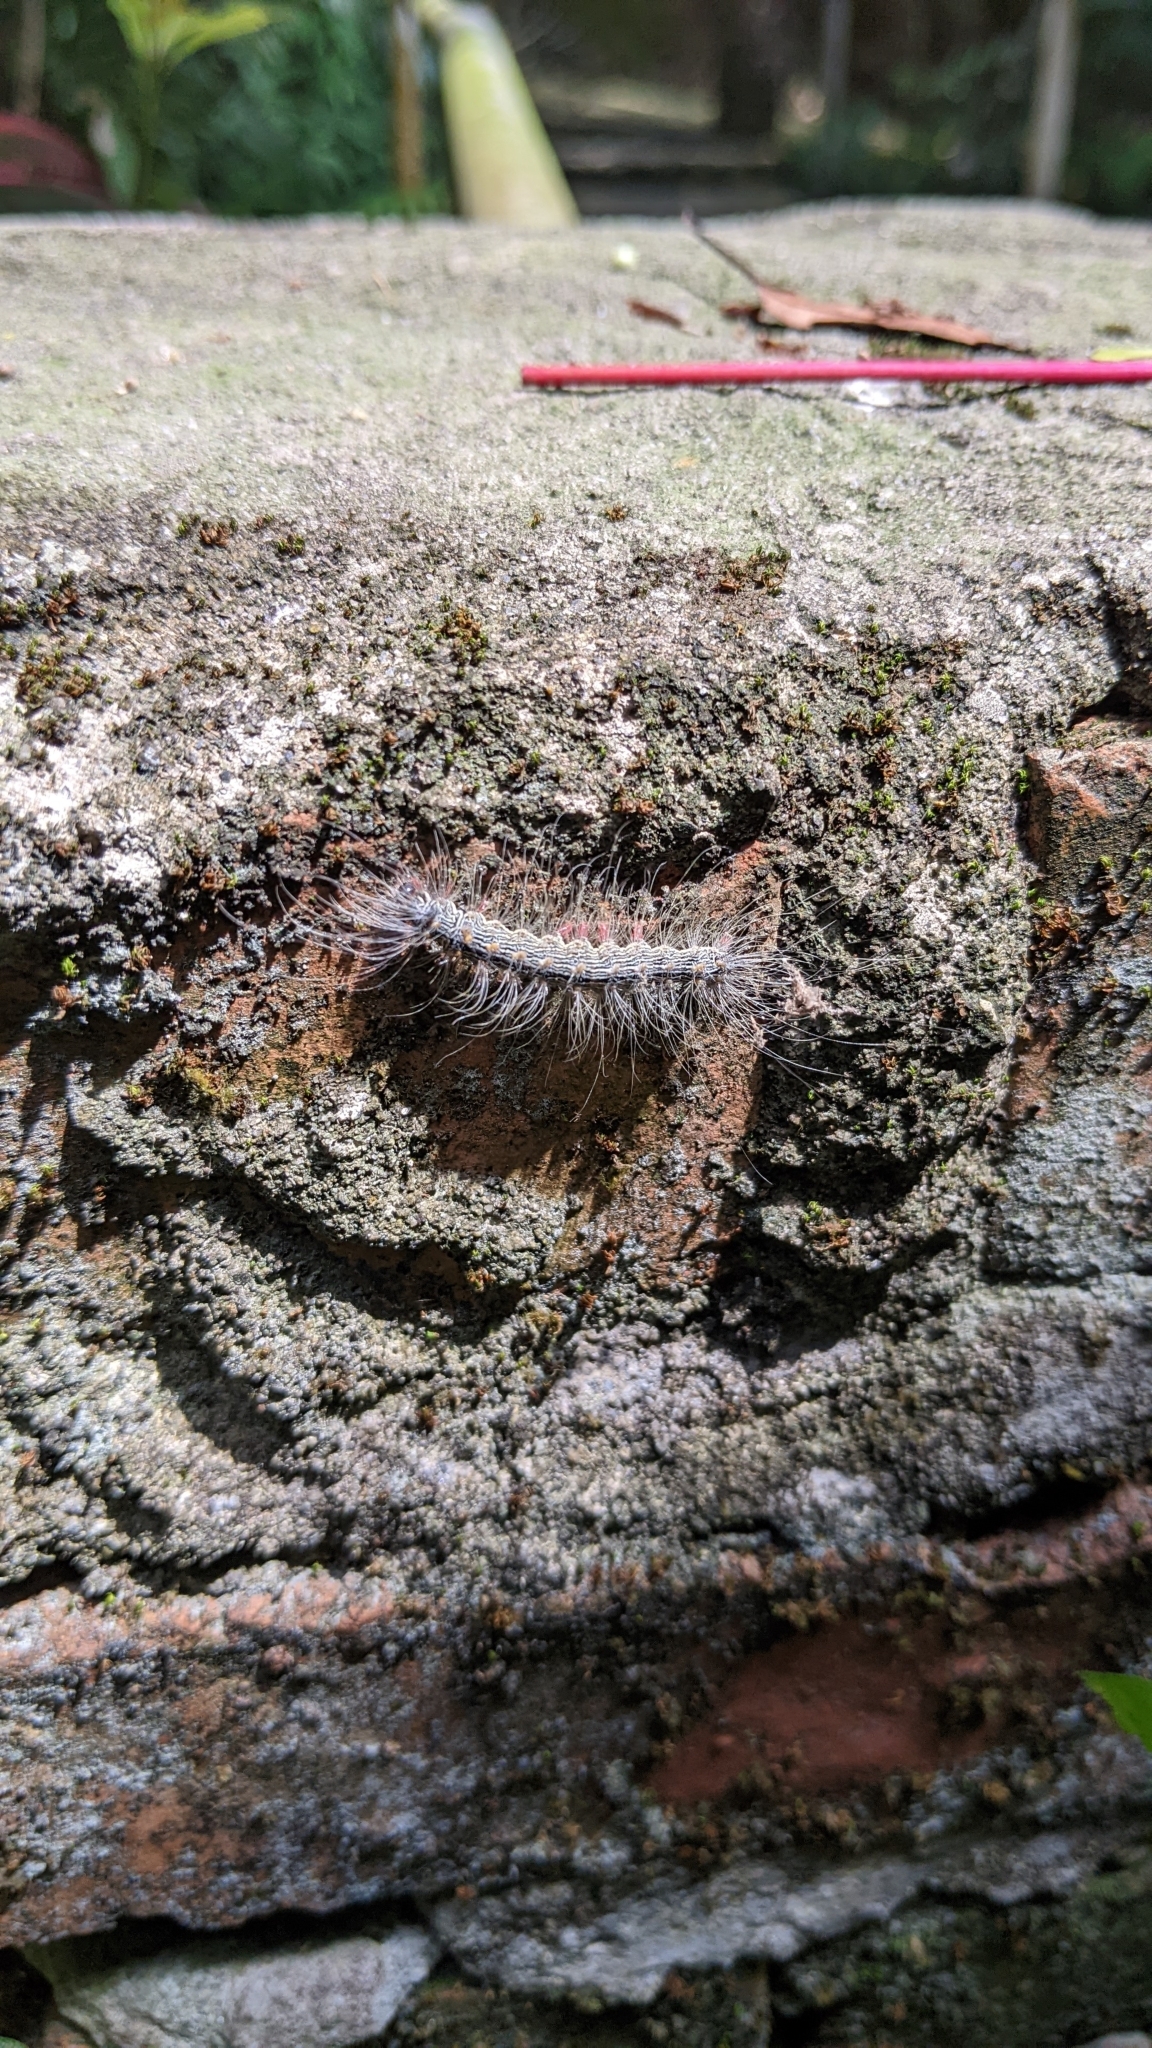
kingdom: Animalia
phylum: Arthropoda
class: Insecta
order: Lepidoptera
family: Erebidae
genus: Chrysaeglia
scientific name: Chrysaeglia magnifica
